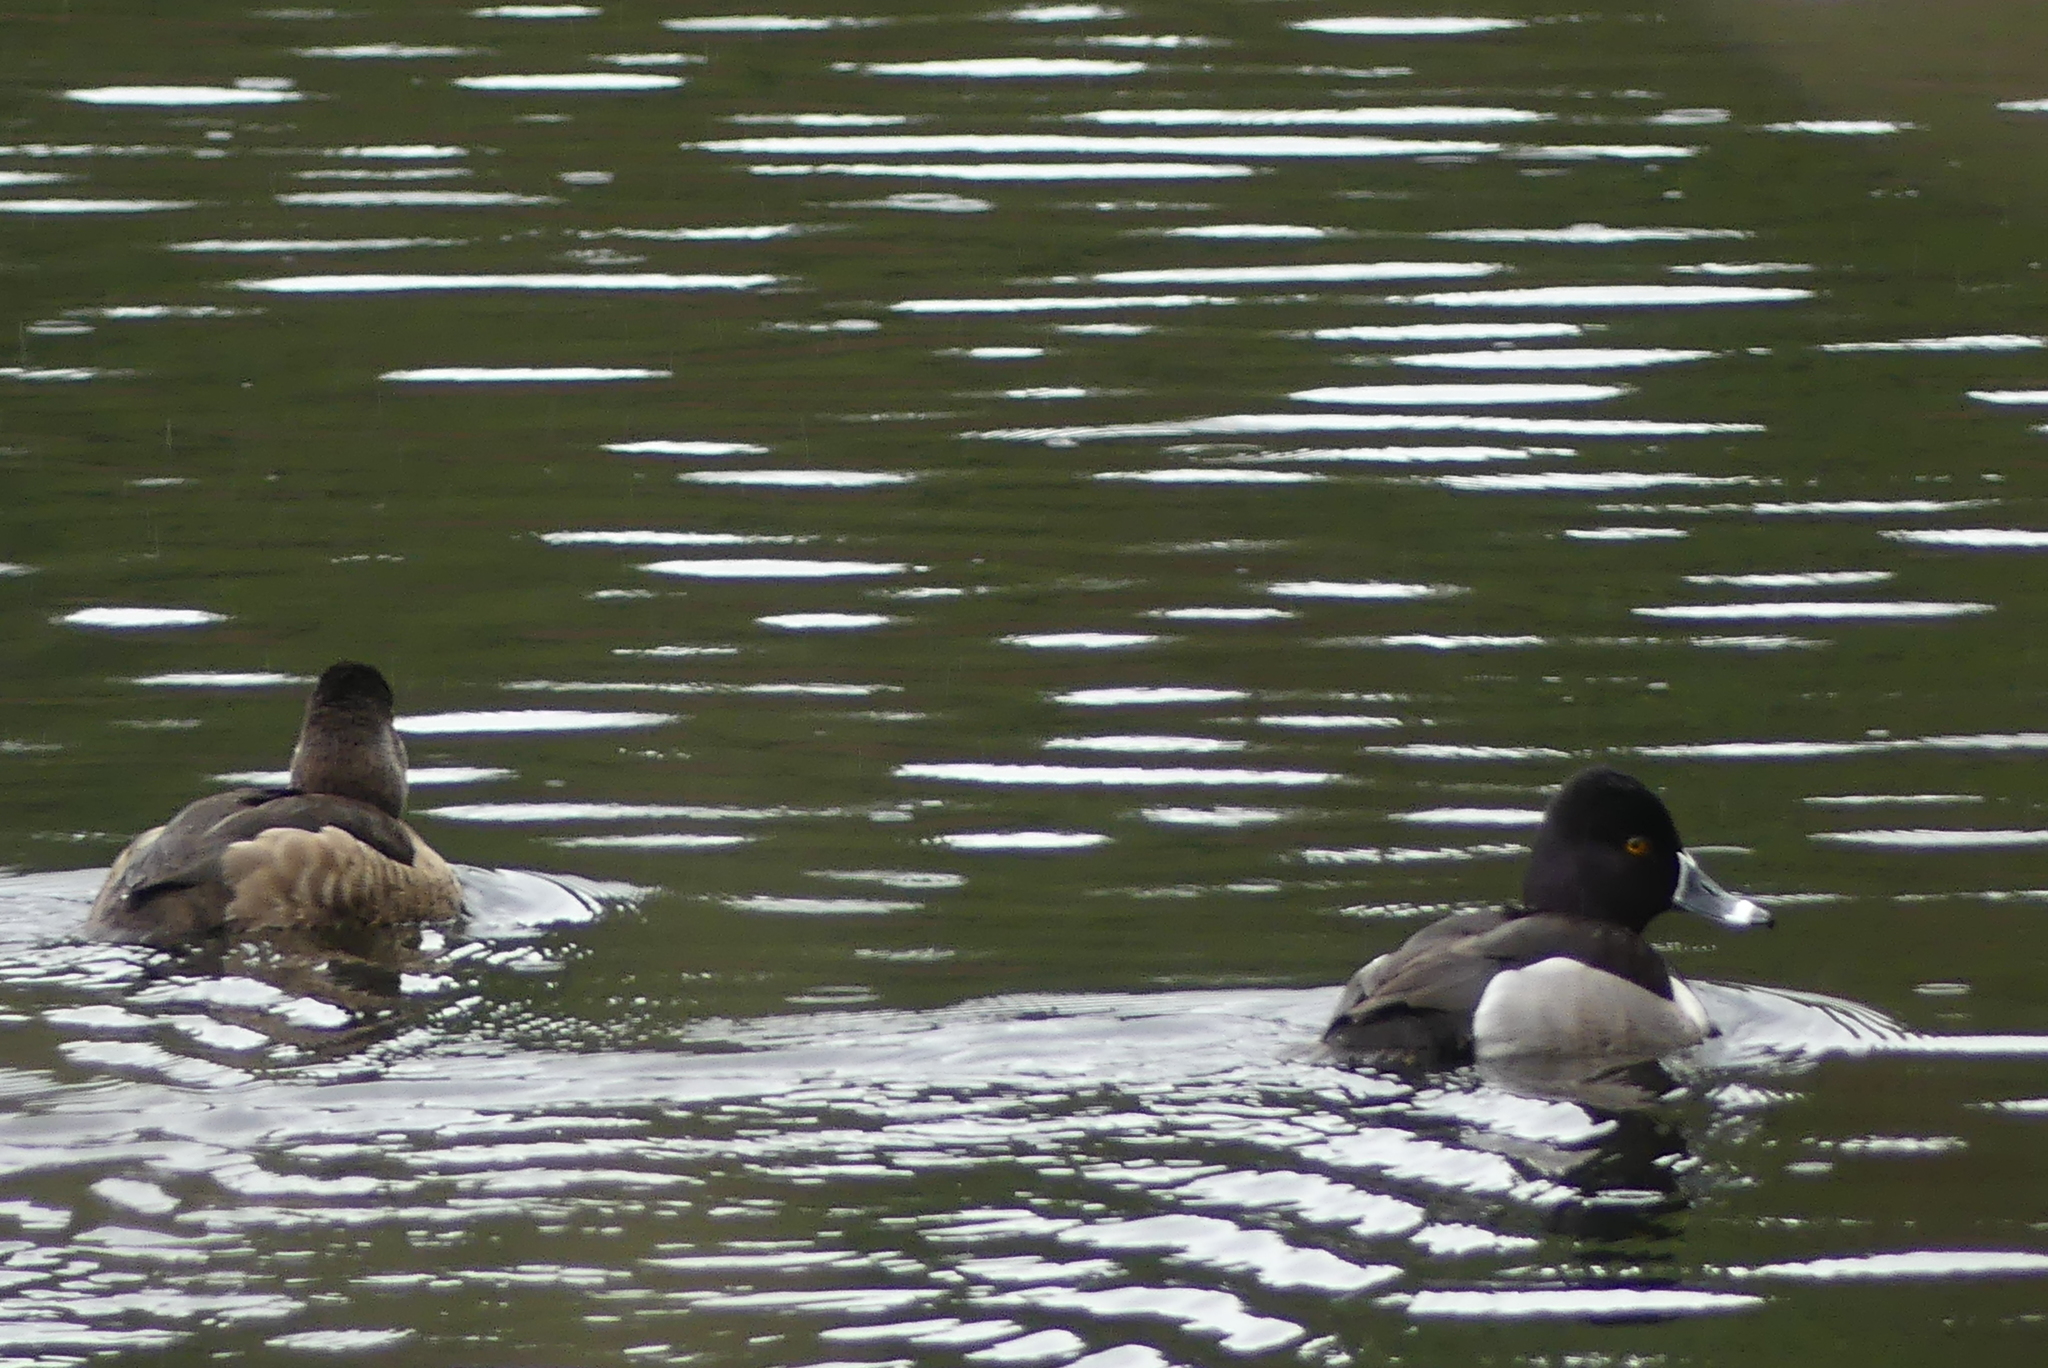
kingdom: Animalia
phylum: Chordata
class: Aves
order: Anseriformes
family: Anatidae
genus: Aythya
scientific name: Aythya collaris
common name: Ring-necked duck
